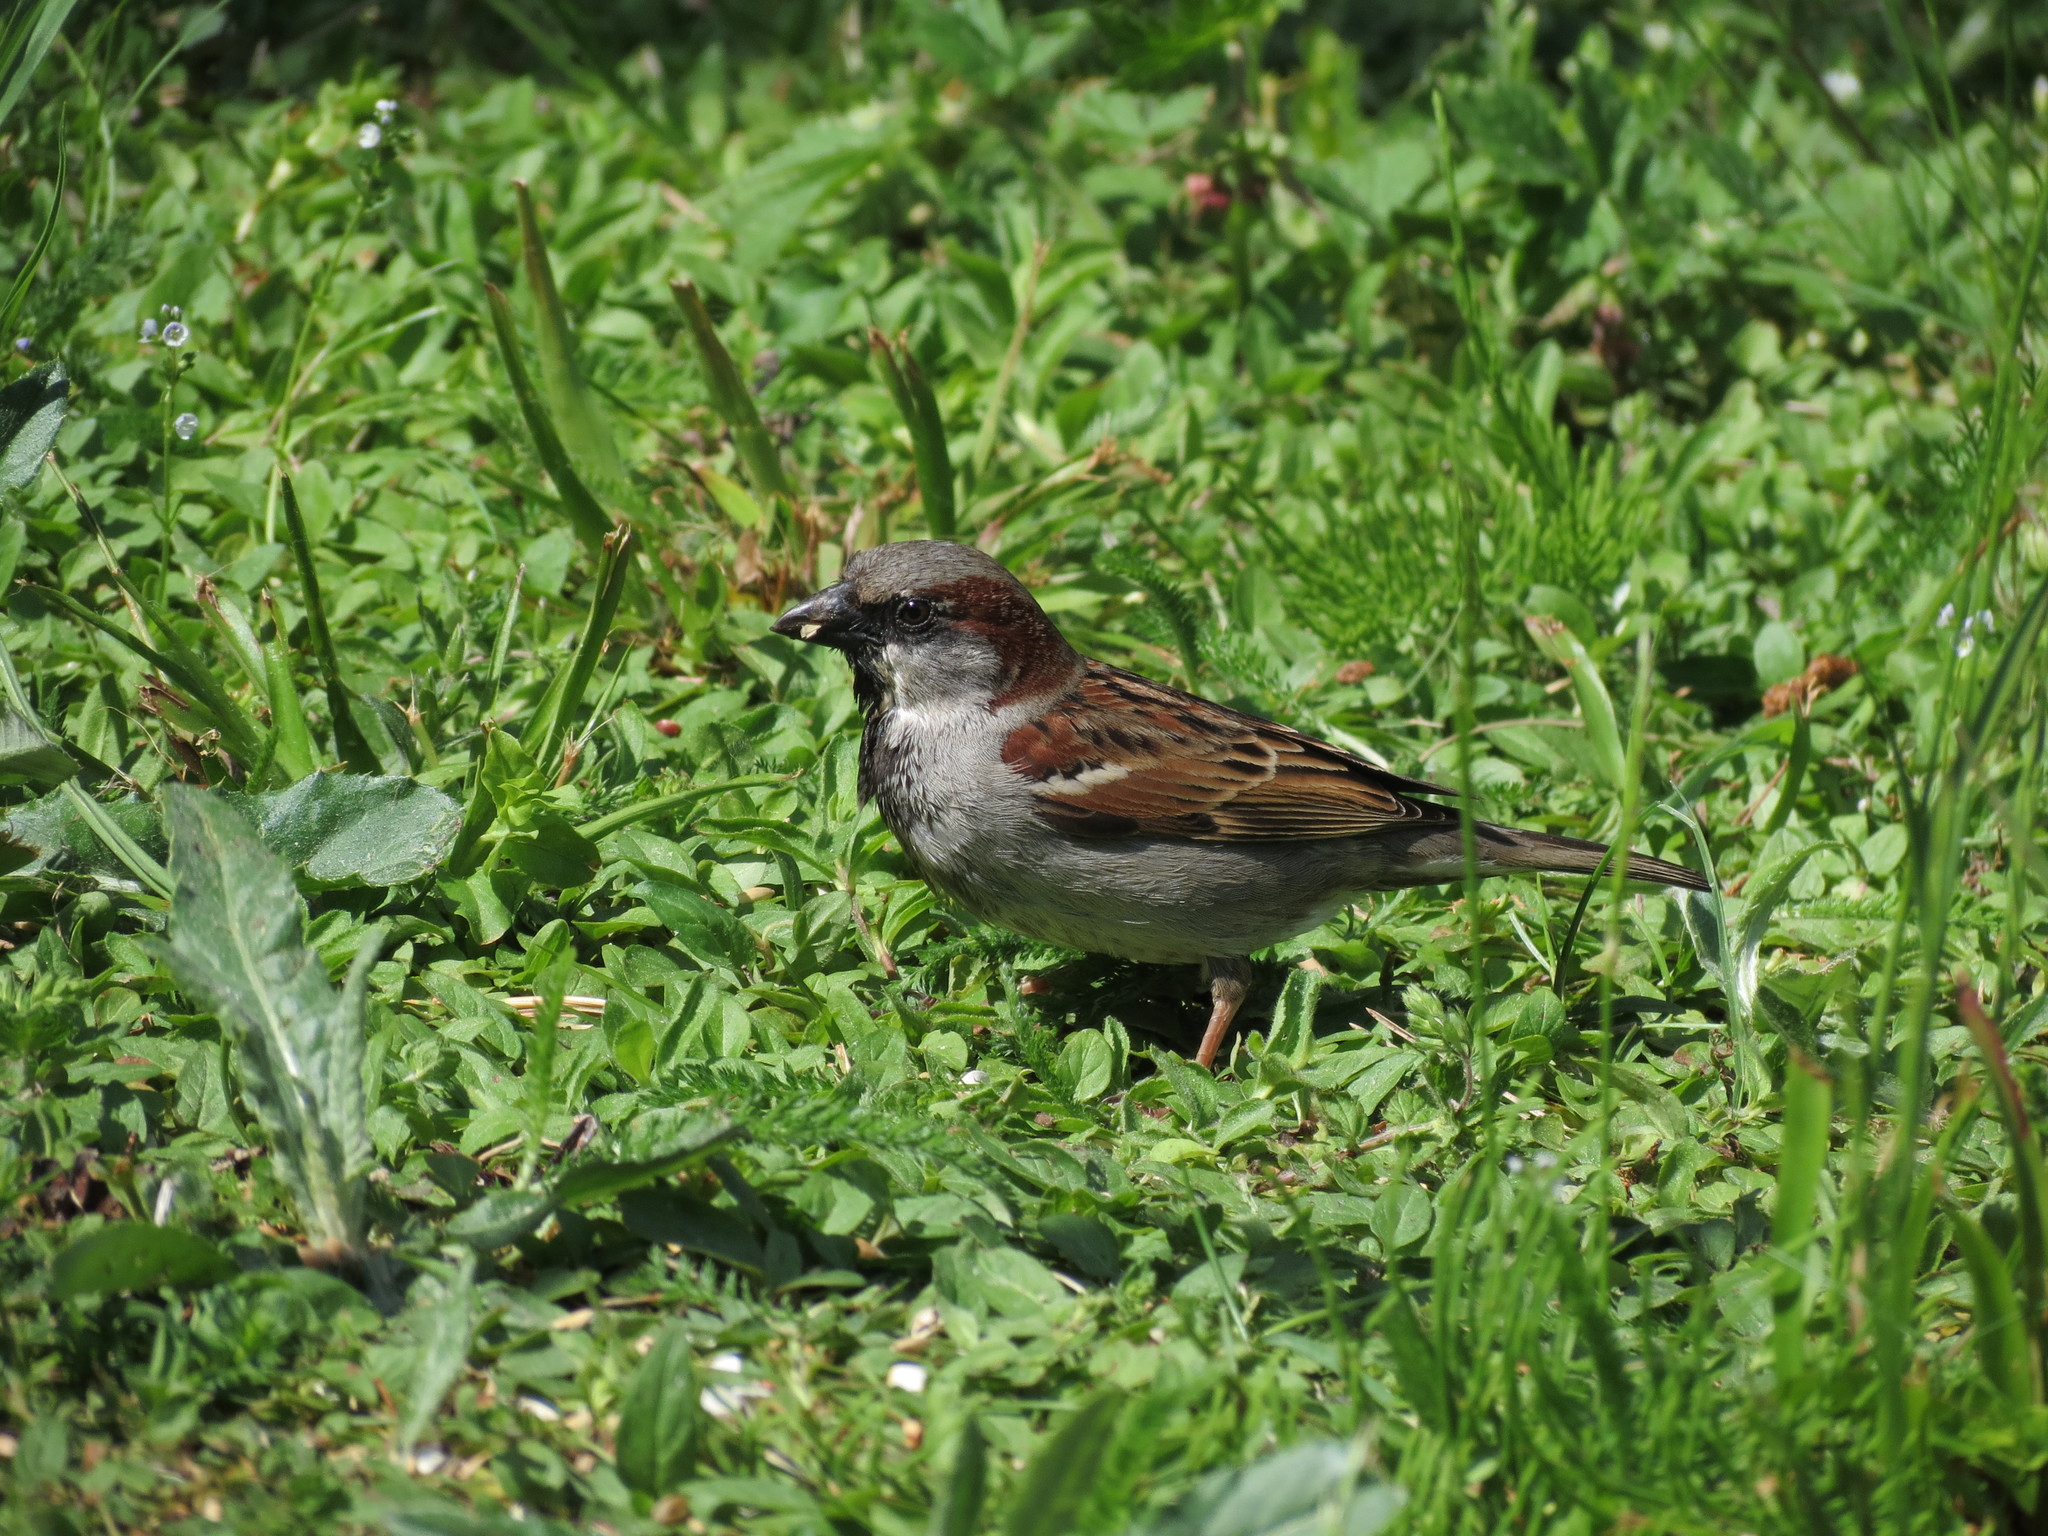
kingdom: Animalia
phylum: Chordata
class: Aves
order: Passeriformes
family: Passeridae
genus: Passer
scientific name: Passer domesticus
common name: House sparrow
